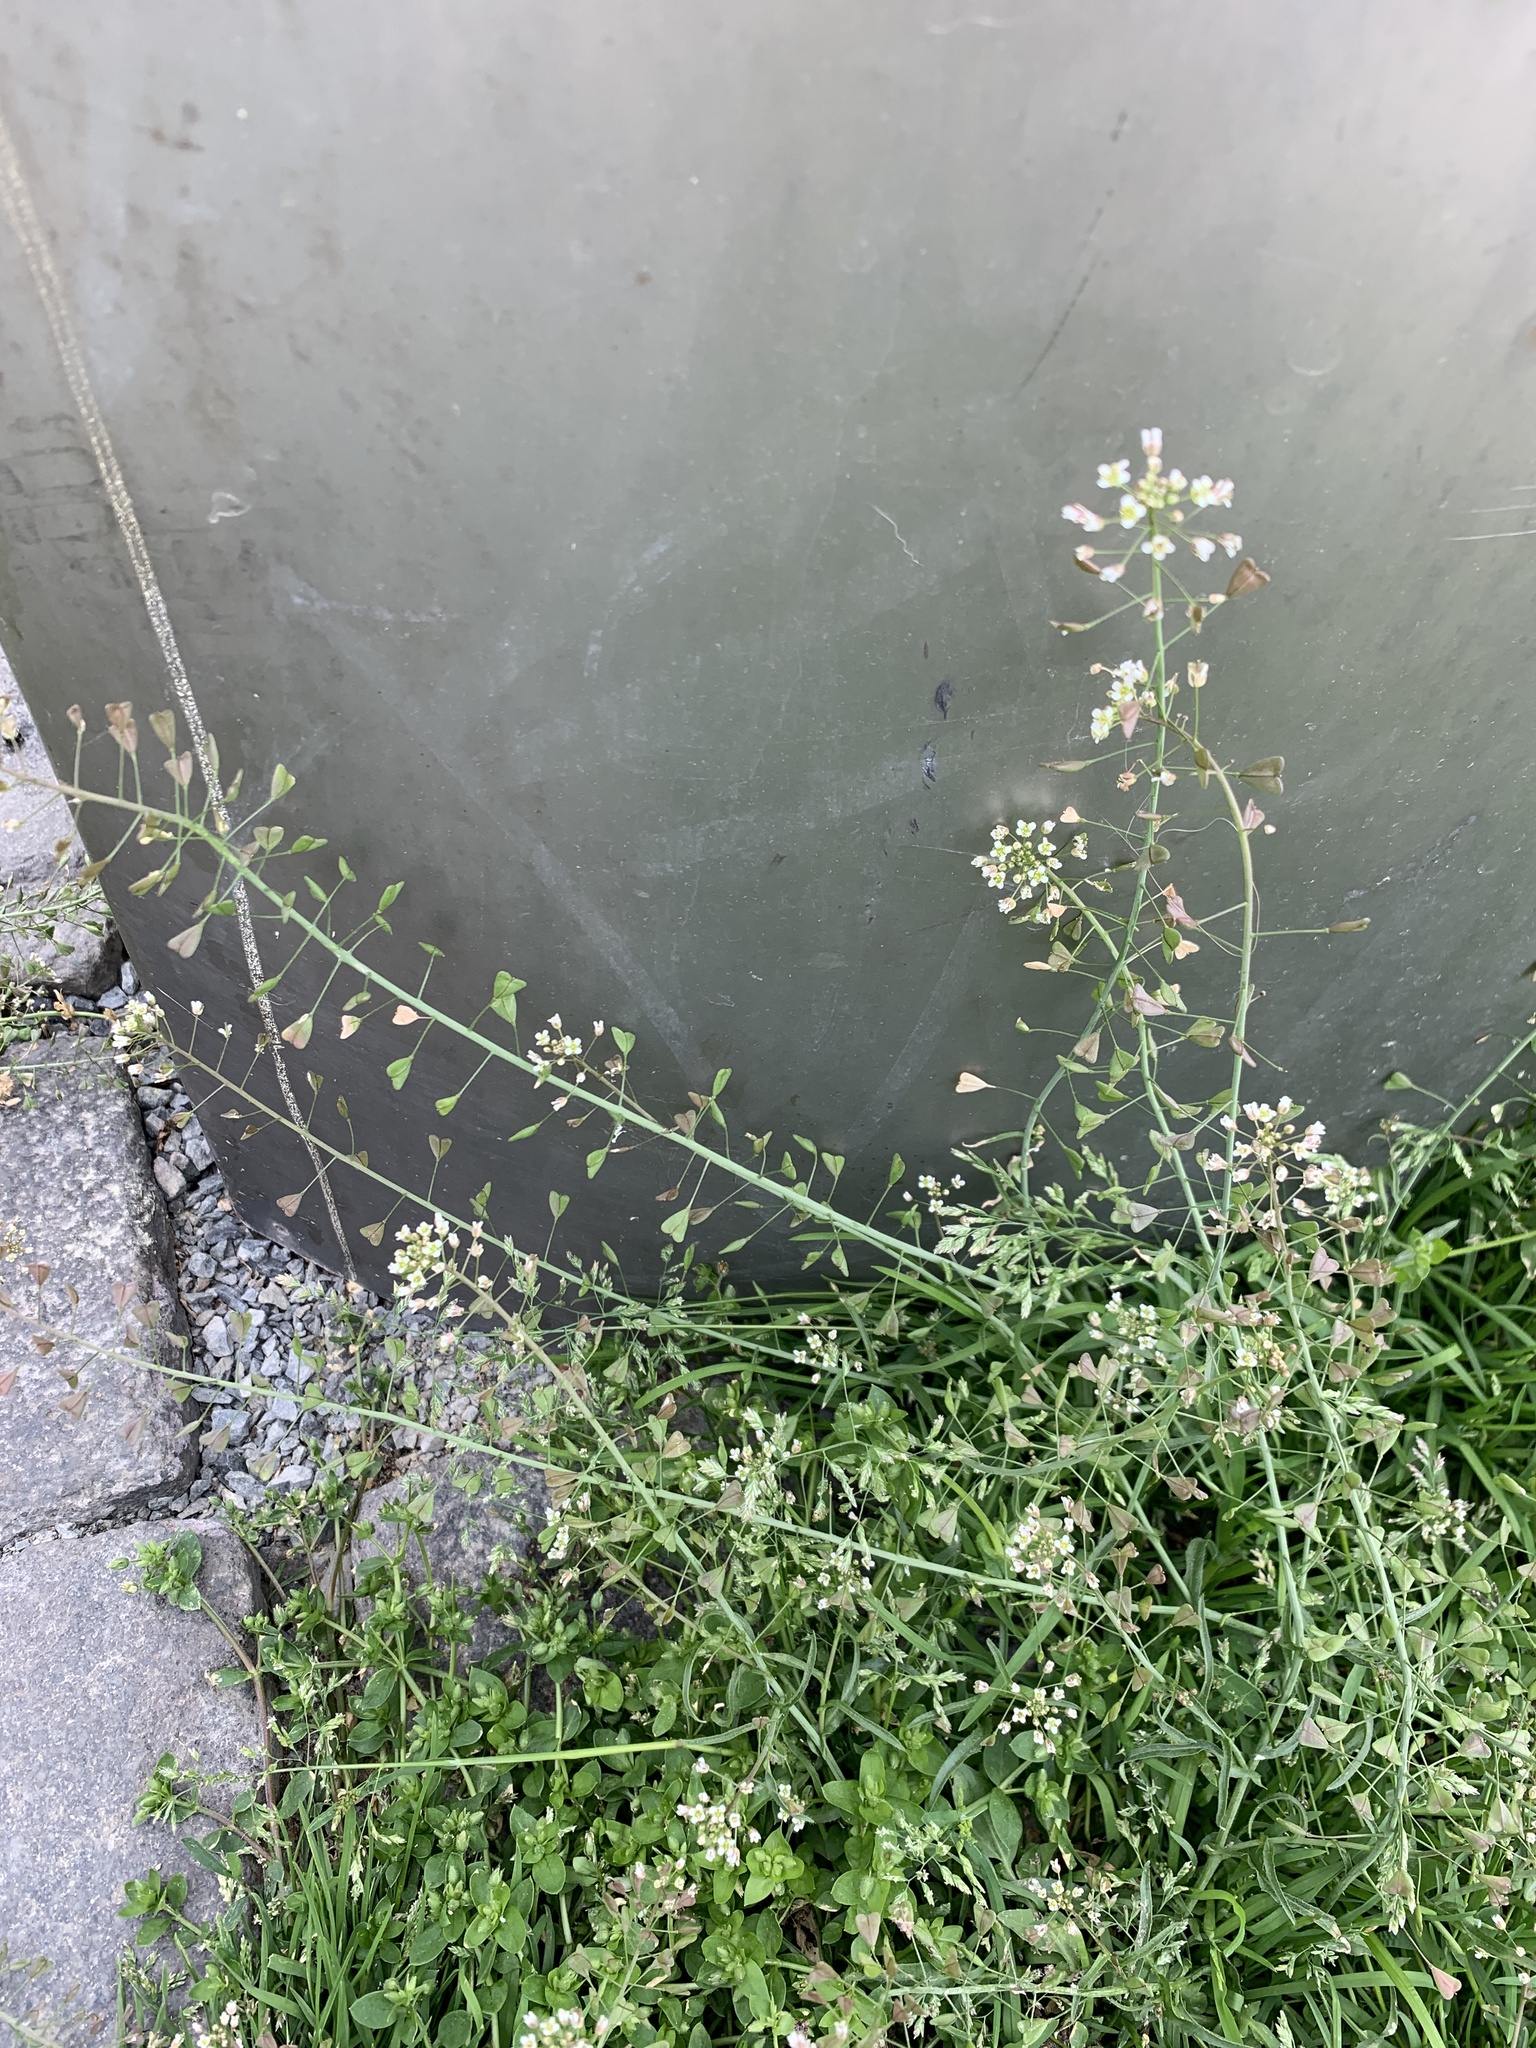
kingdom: Plantae
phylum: Tracheophyta
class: Magnoliopsida
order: Brassicales
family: Brassicaceae
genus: Capsella
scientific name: Capsella bursa-pastoris
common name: Shepherd's purse
